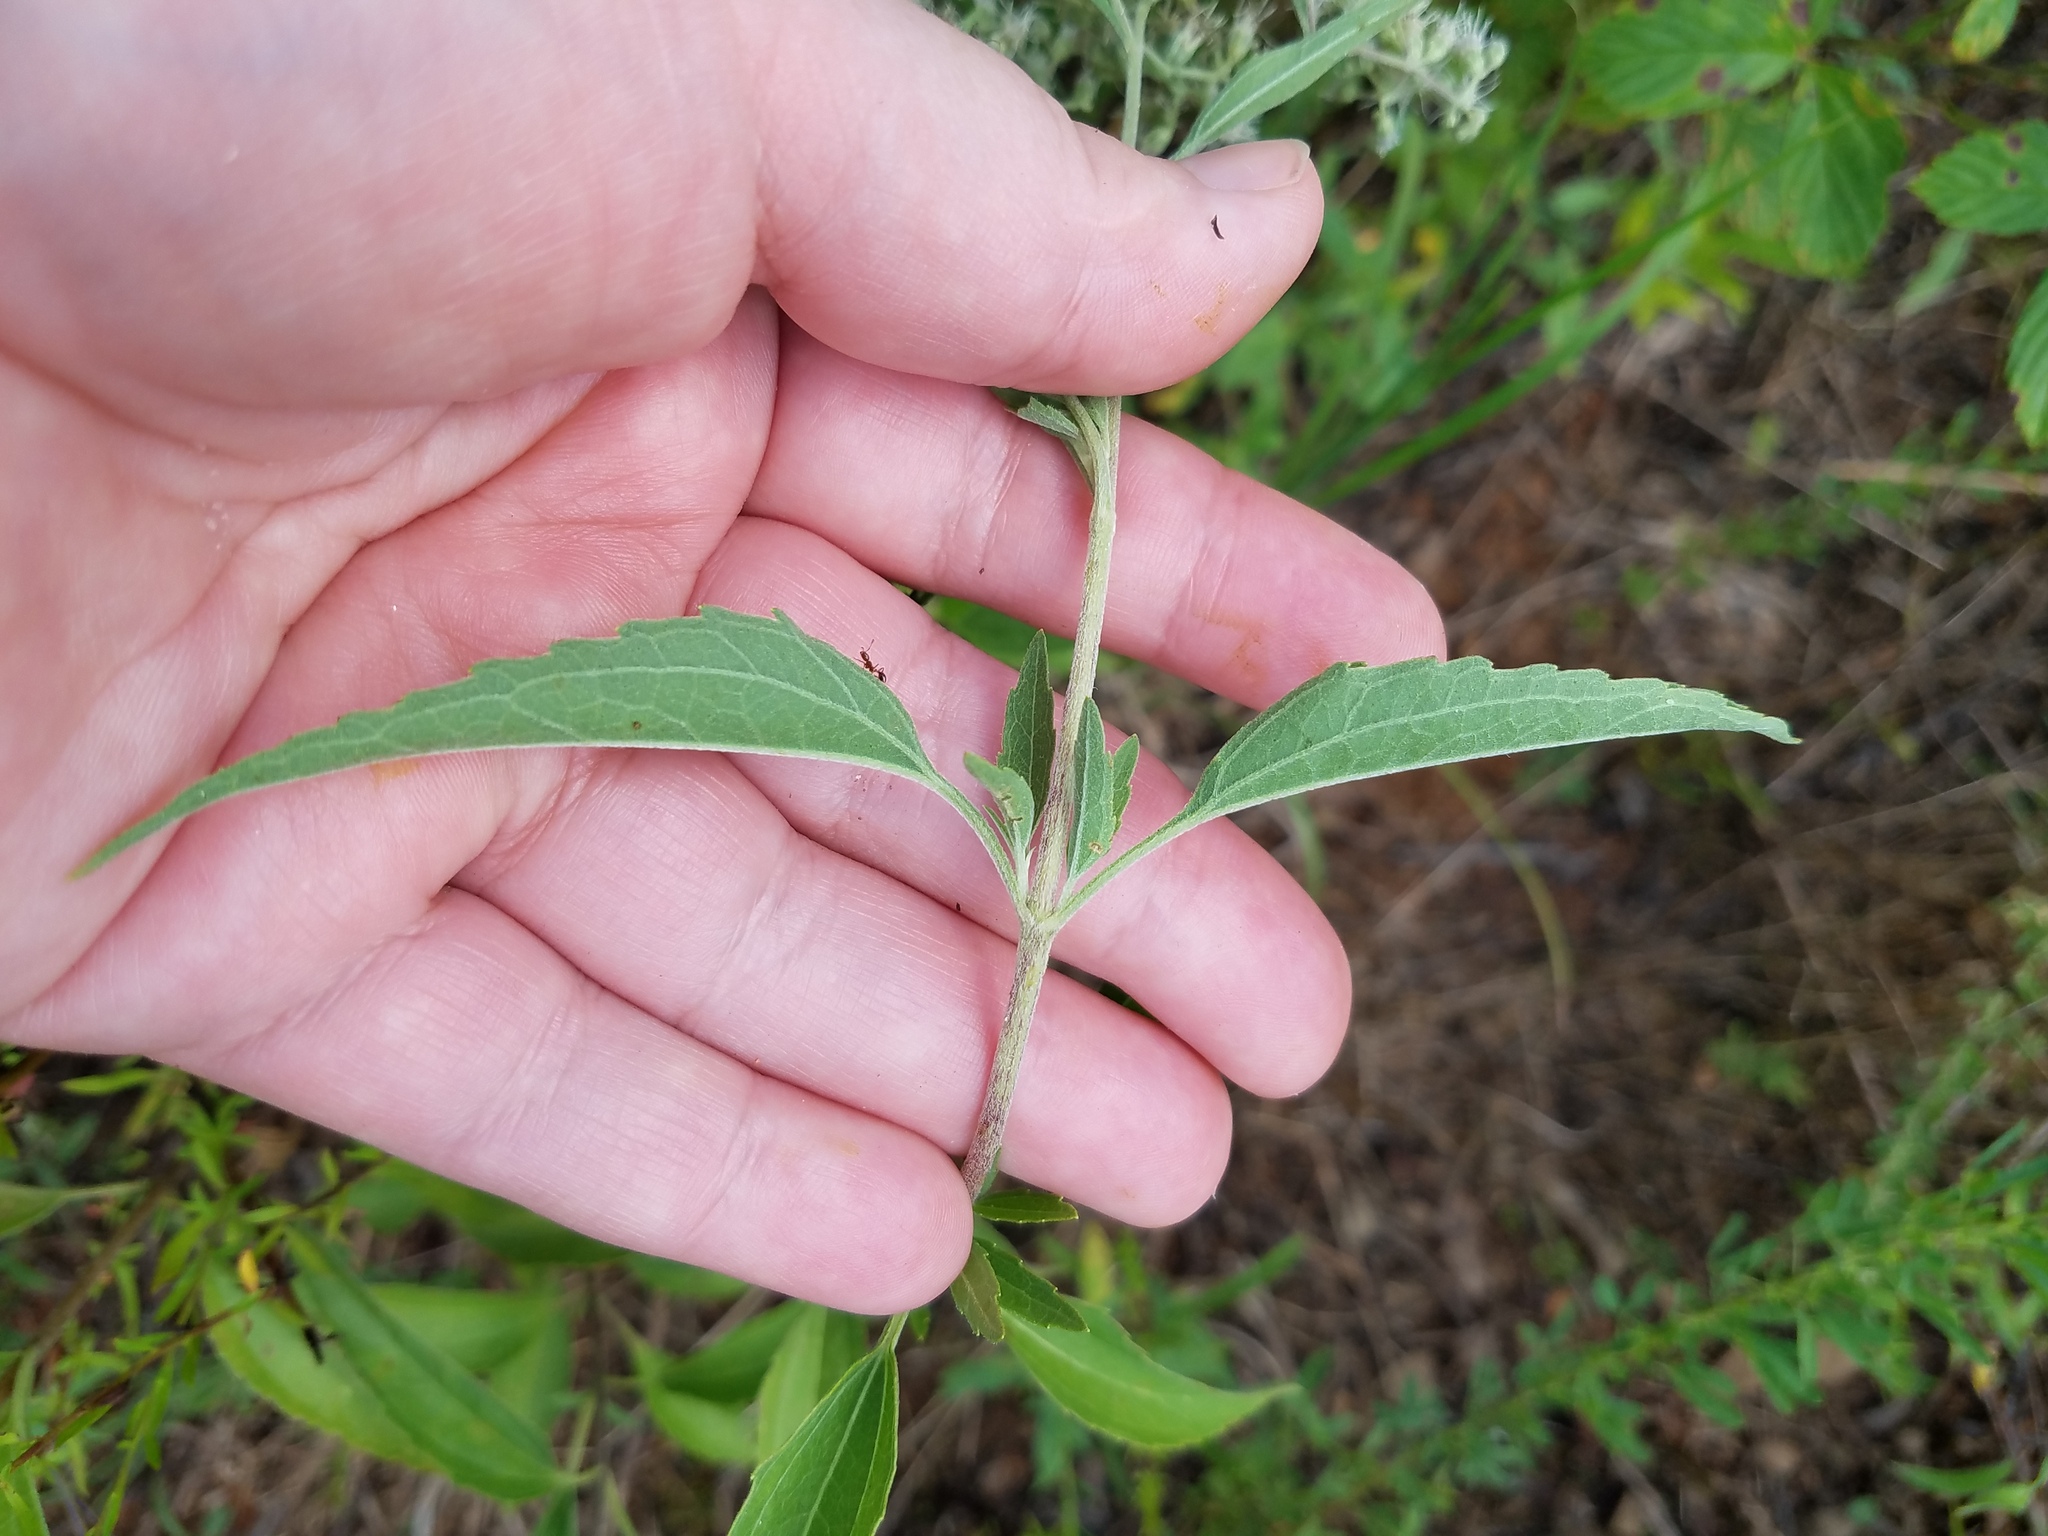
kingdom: Plantae
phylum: Tracheophyta
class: Magnoliopsida
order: Asterales
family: Asteraceae
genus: Eupatorium
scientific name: Eupatorium serotinum
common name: Late boneset
